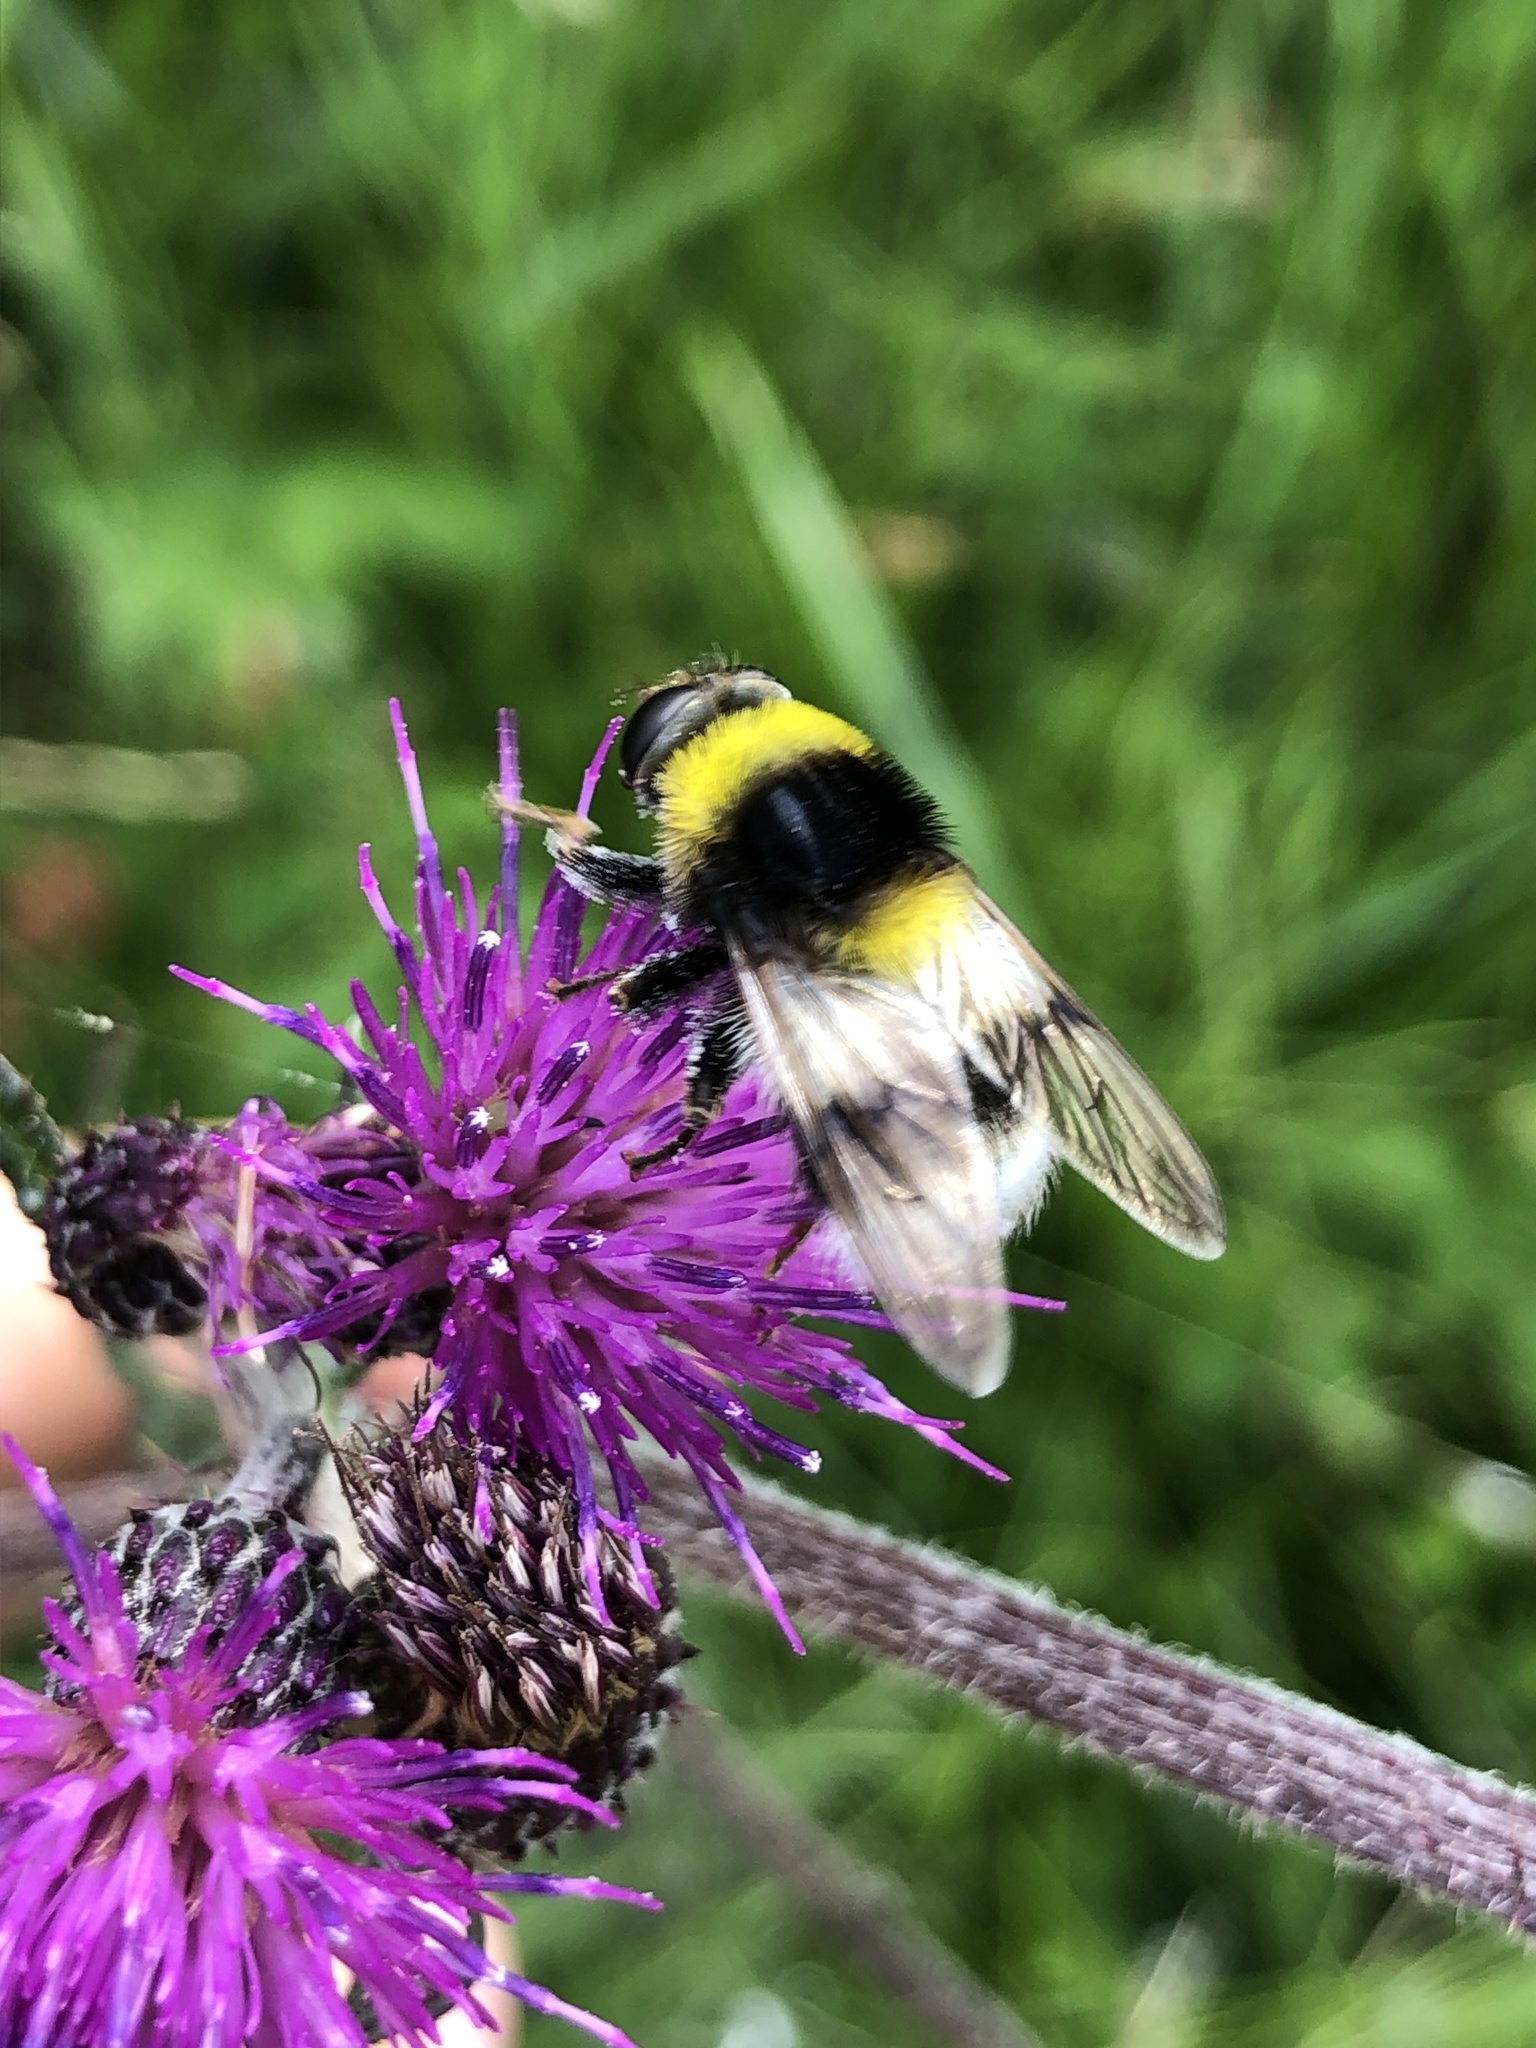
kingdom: Animalia
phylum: Arthropoda
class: Insecta
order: Diptera
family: Syrphidae
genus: Sericomyia
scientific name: Sericomyia bombiformis
